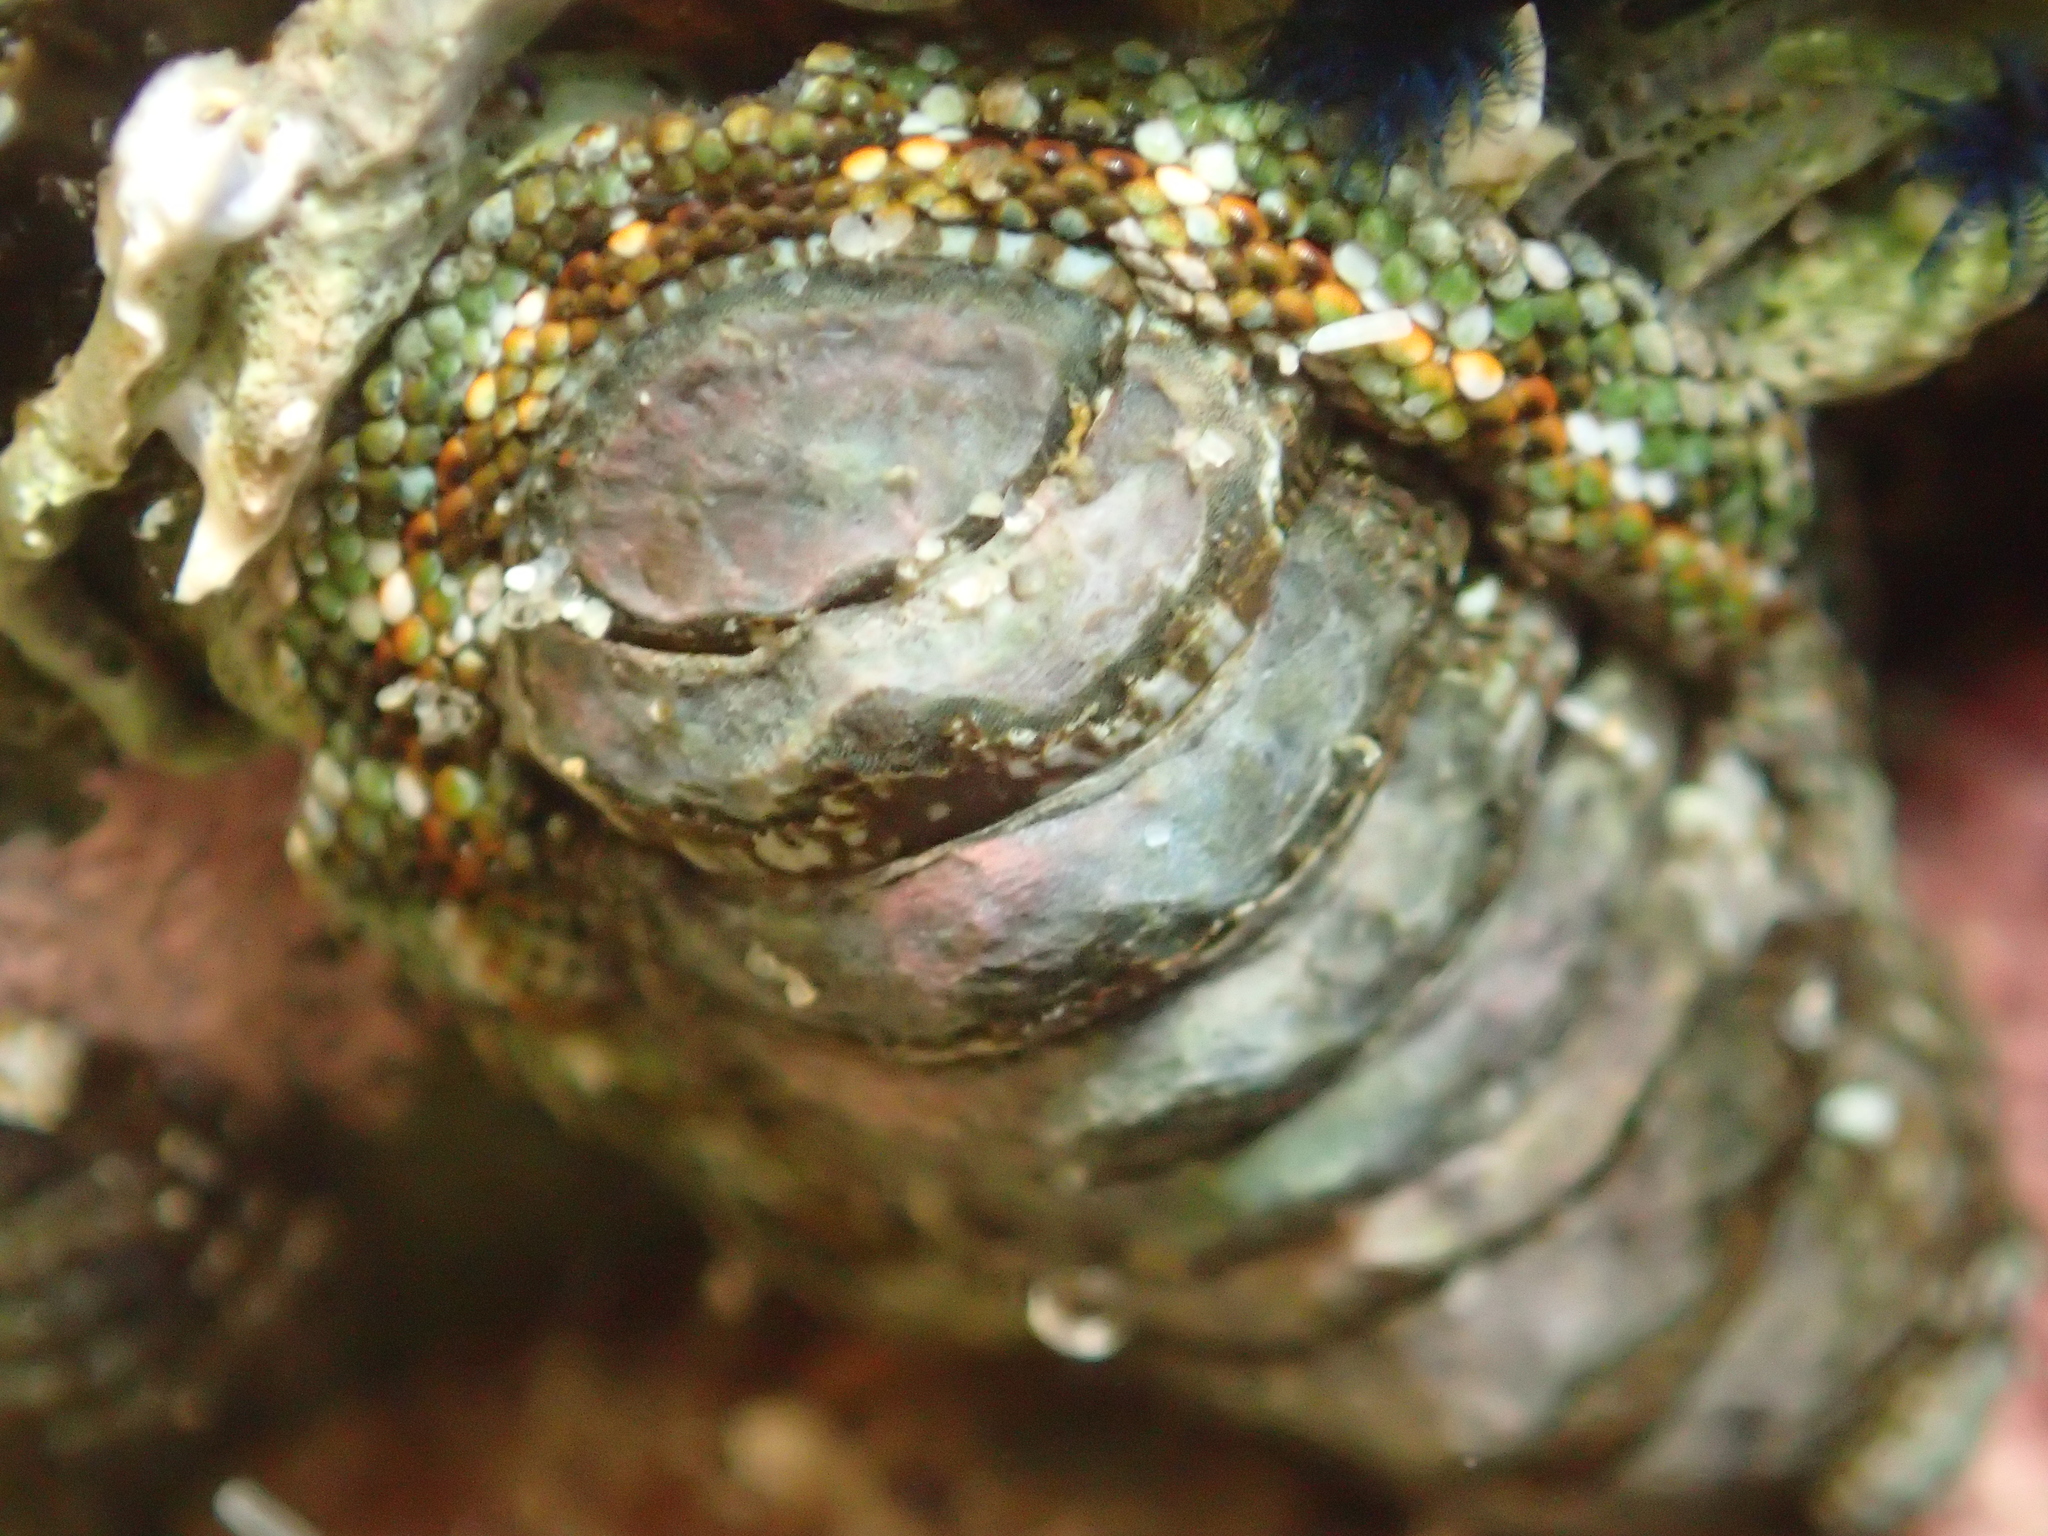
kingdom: Animalia
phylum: Mollusca
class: Polyplacophora
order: Chitonida
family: Chitonidae
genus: Sypharochiton
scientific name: Sypharochiton sinclairi
